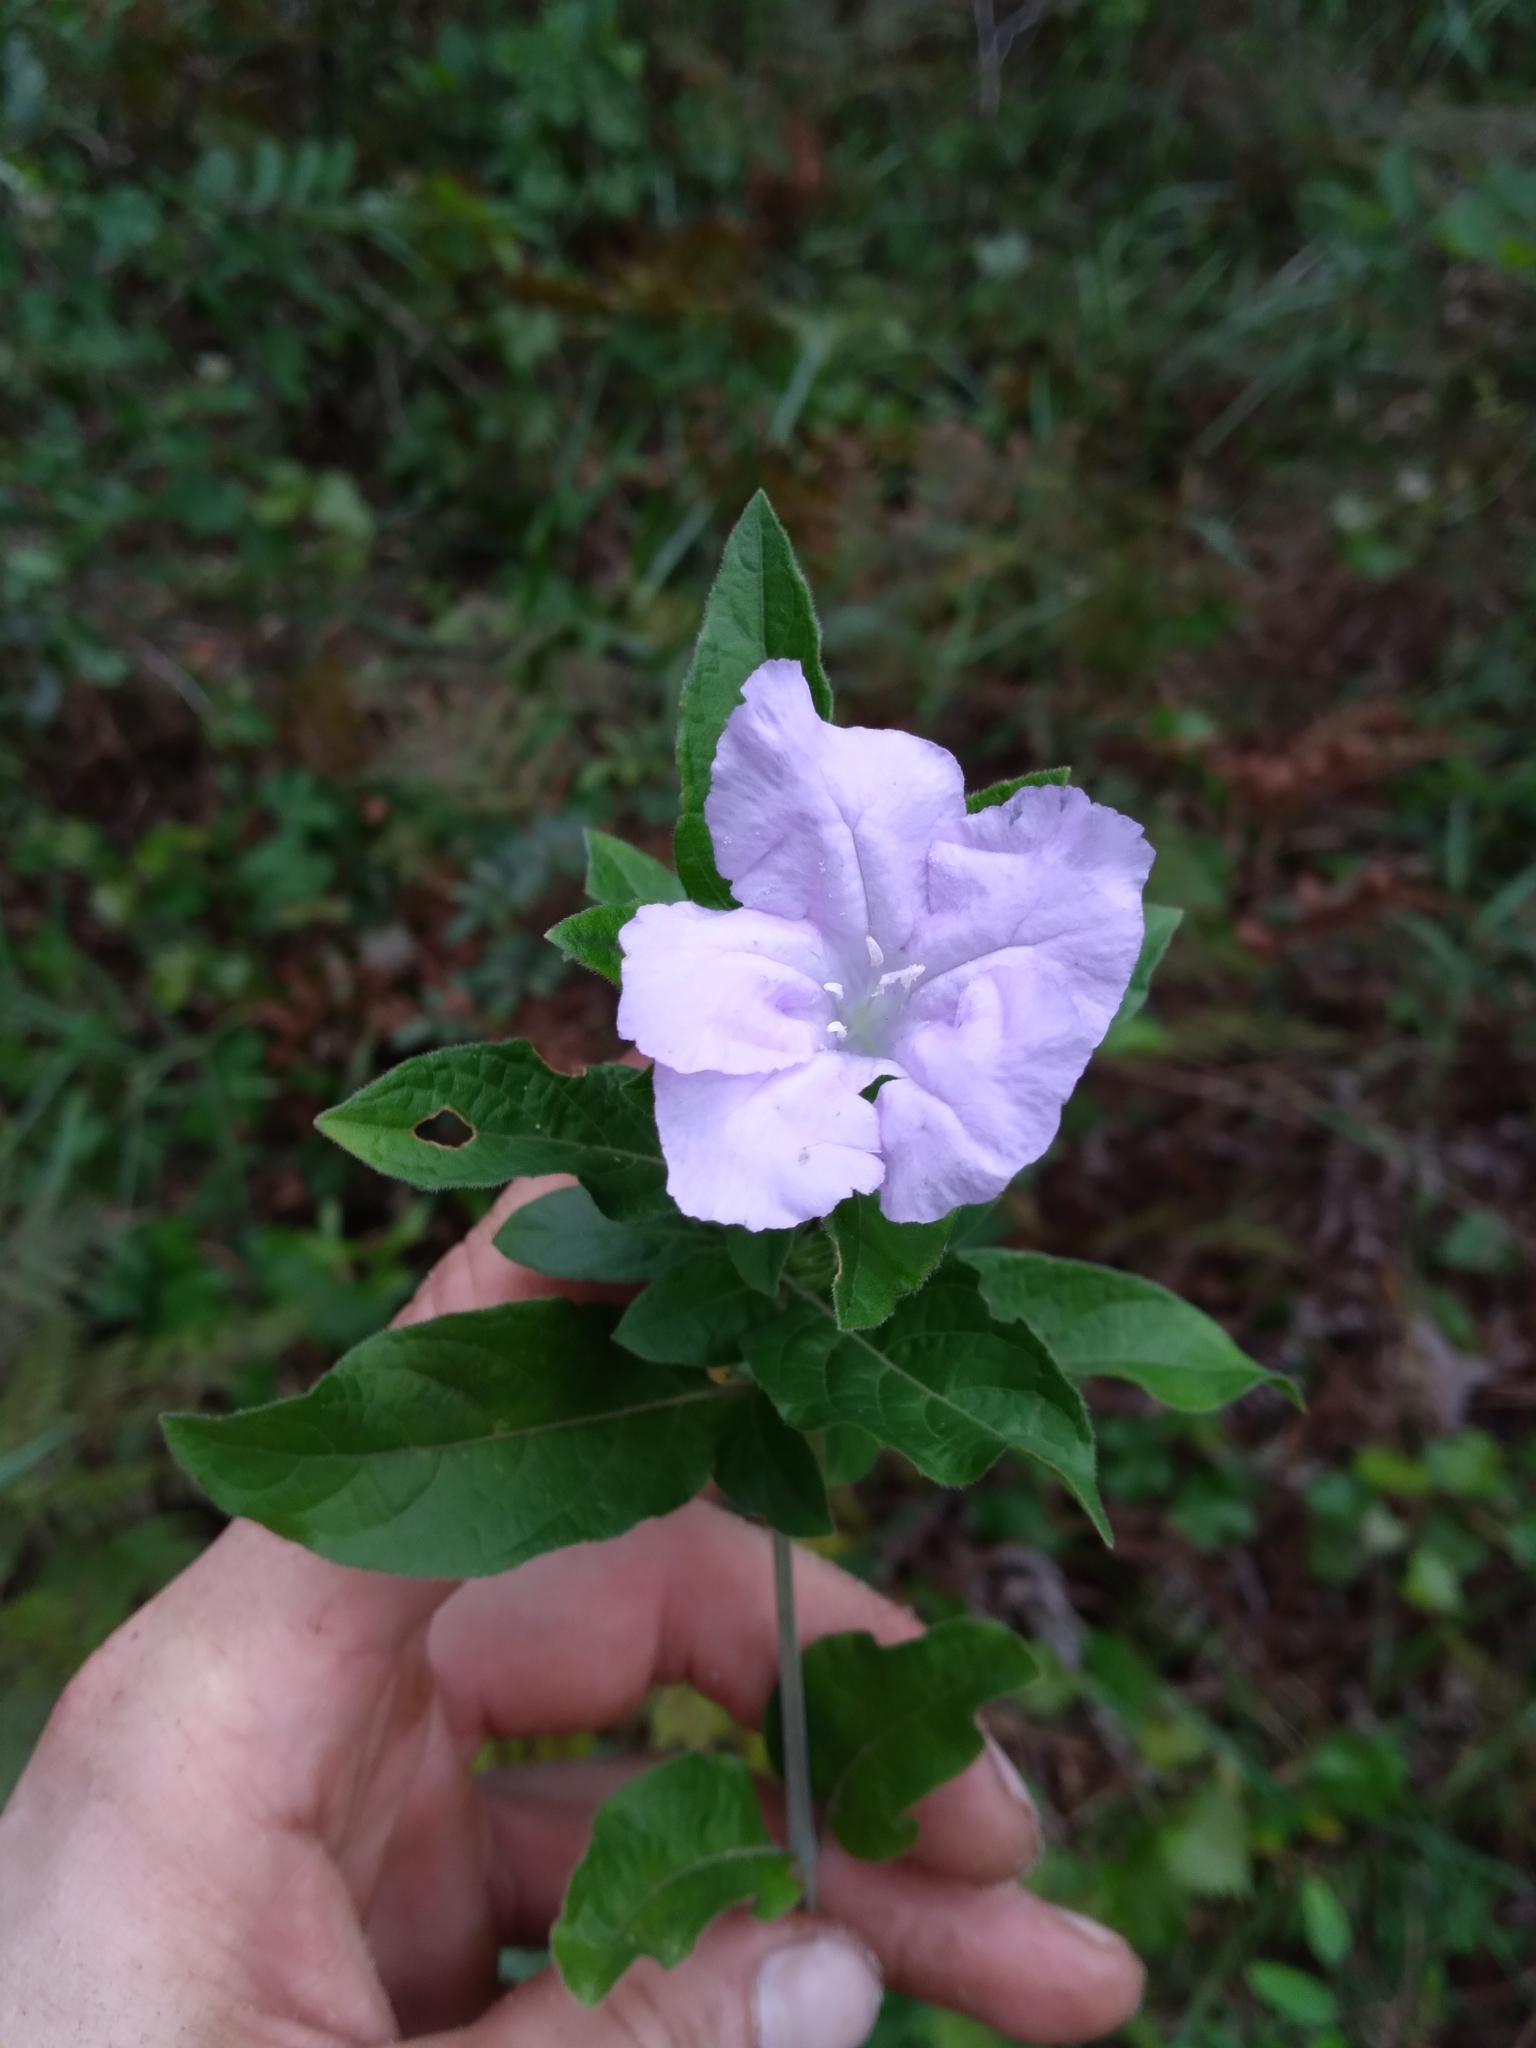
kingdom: Plantae
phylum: Tracheophyta
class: Magnoliopsida
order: Lamiales
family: Acanthaceae
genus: Ruellia
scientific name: Ruellia caroliniensis
